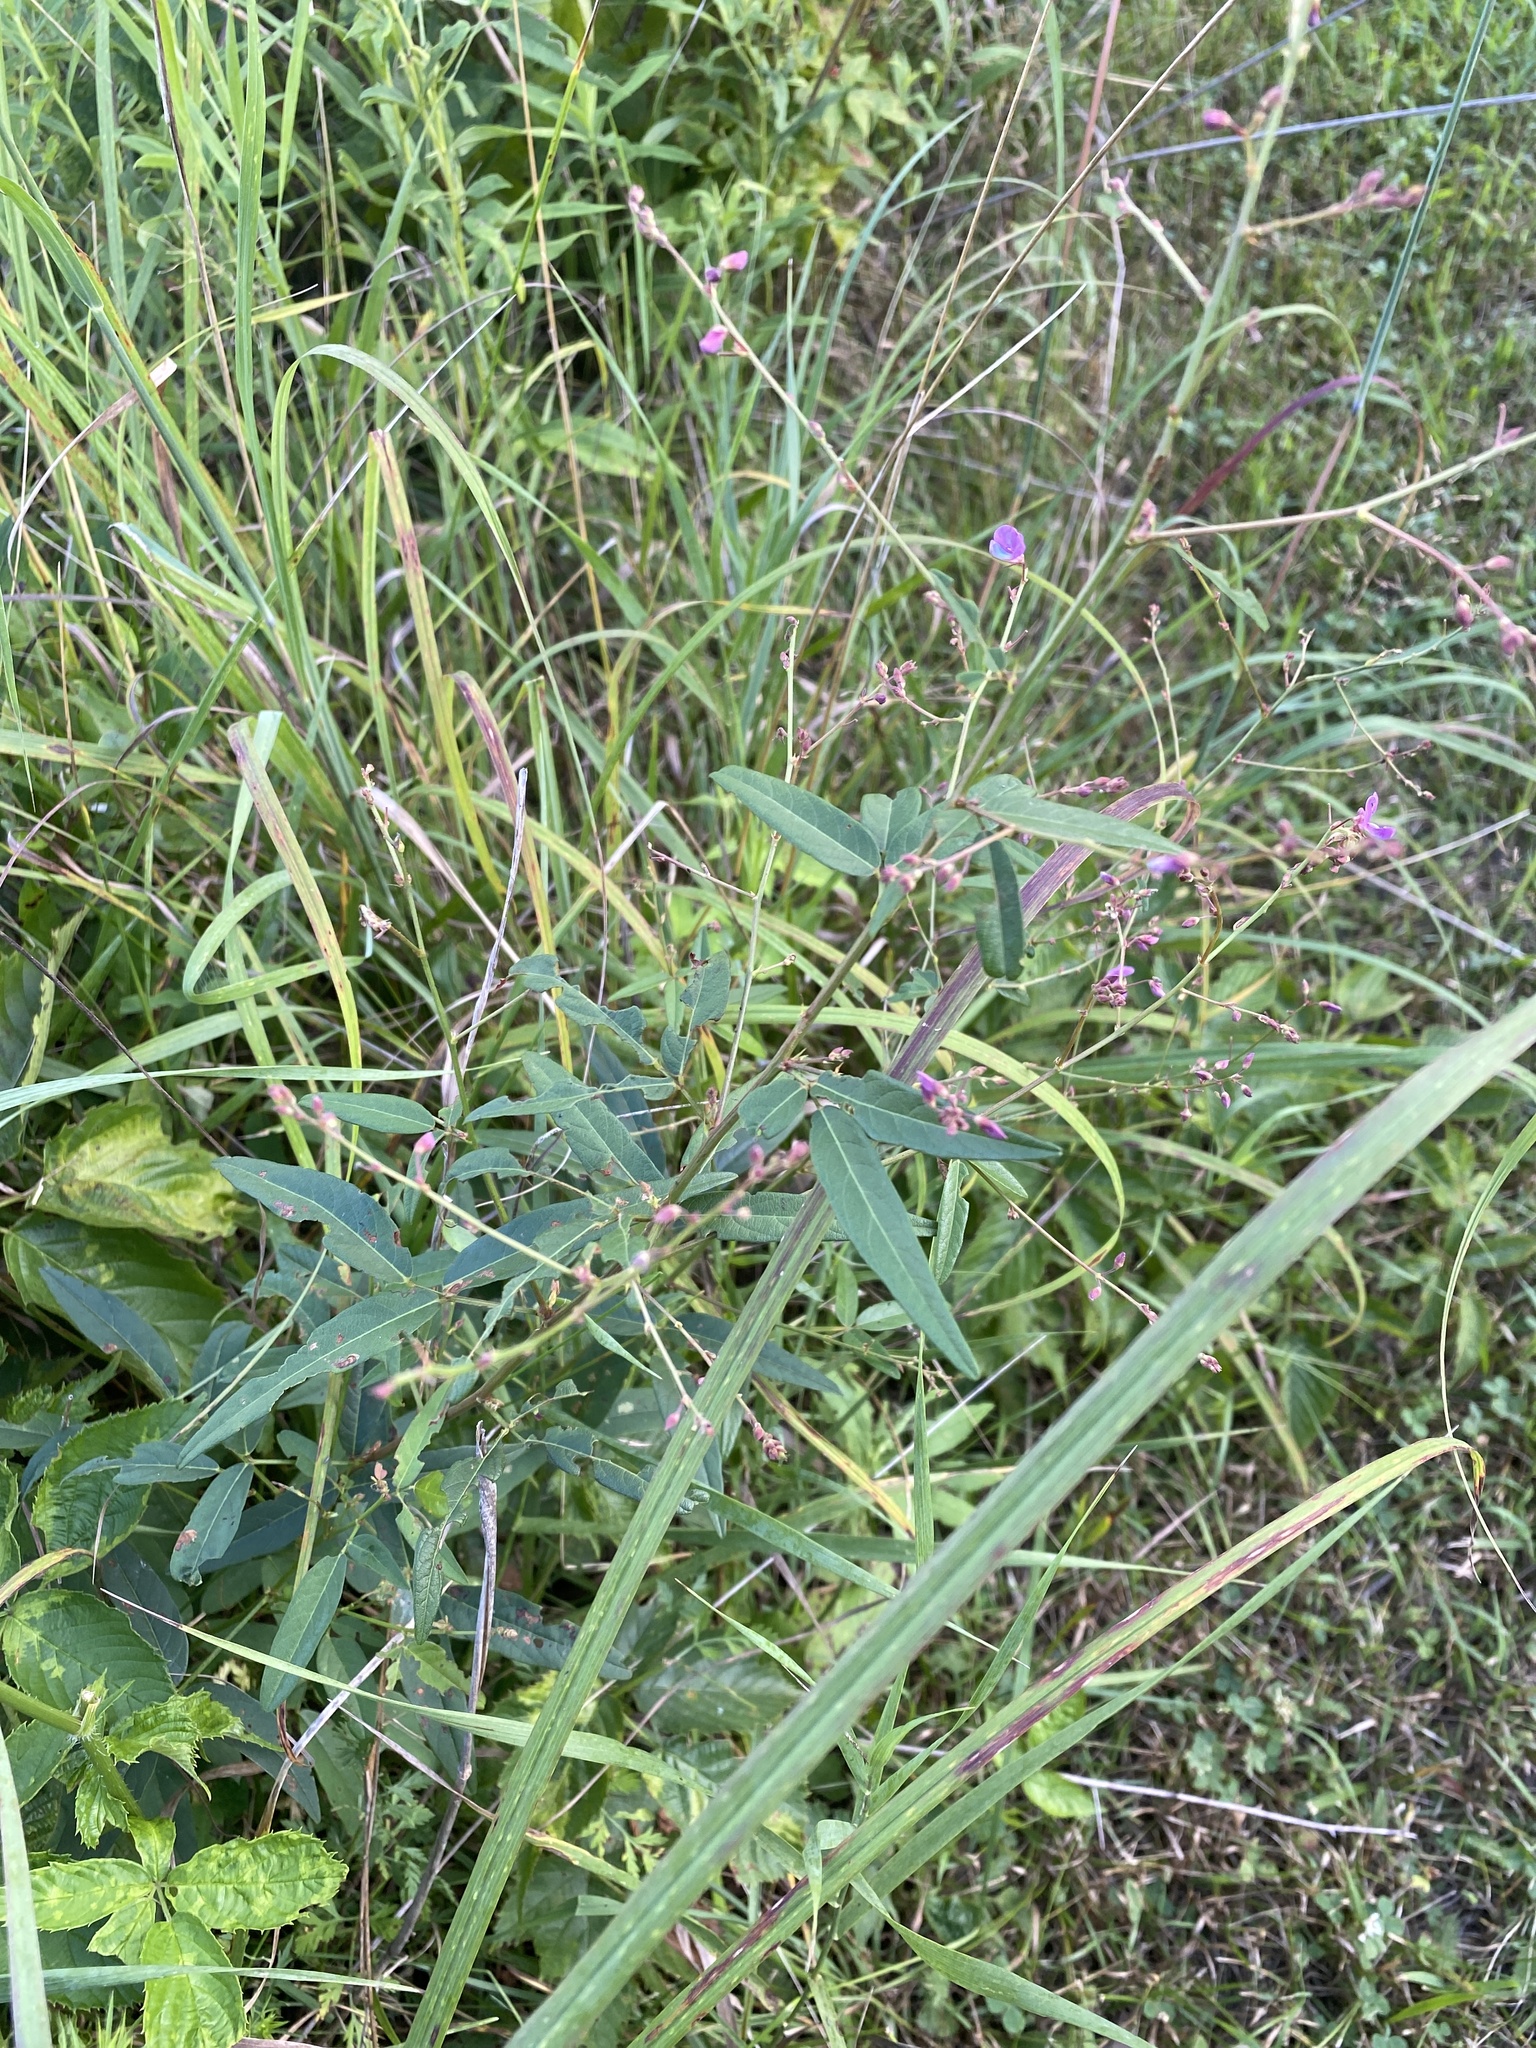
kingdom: Plantae
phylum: Tracheophyta
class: Magnoliopsida
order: Fabales
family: Fabaceae
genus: Desmodium
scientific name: Desmodium paniculatum
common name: Panicled tick-clover
